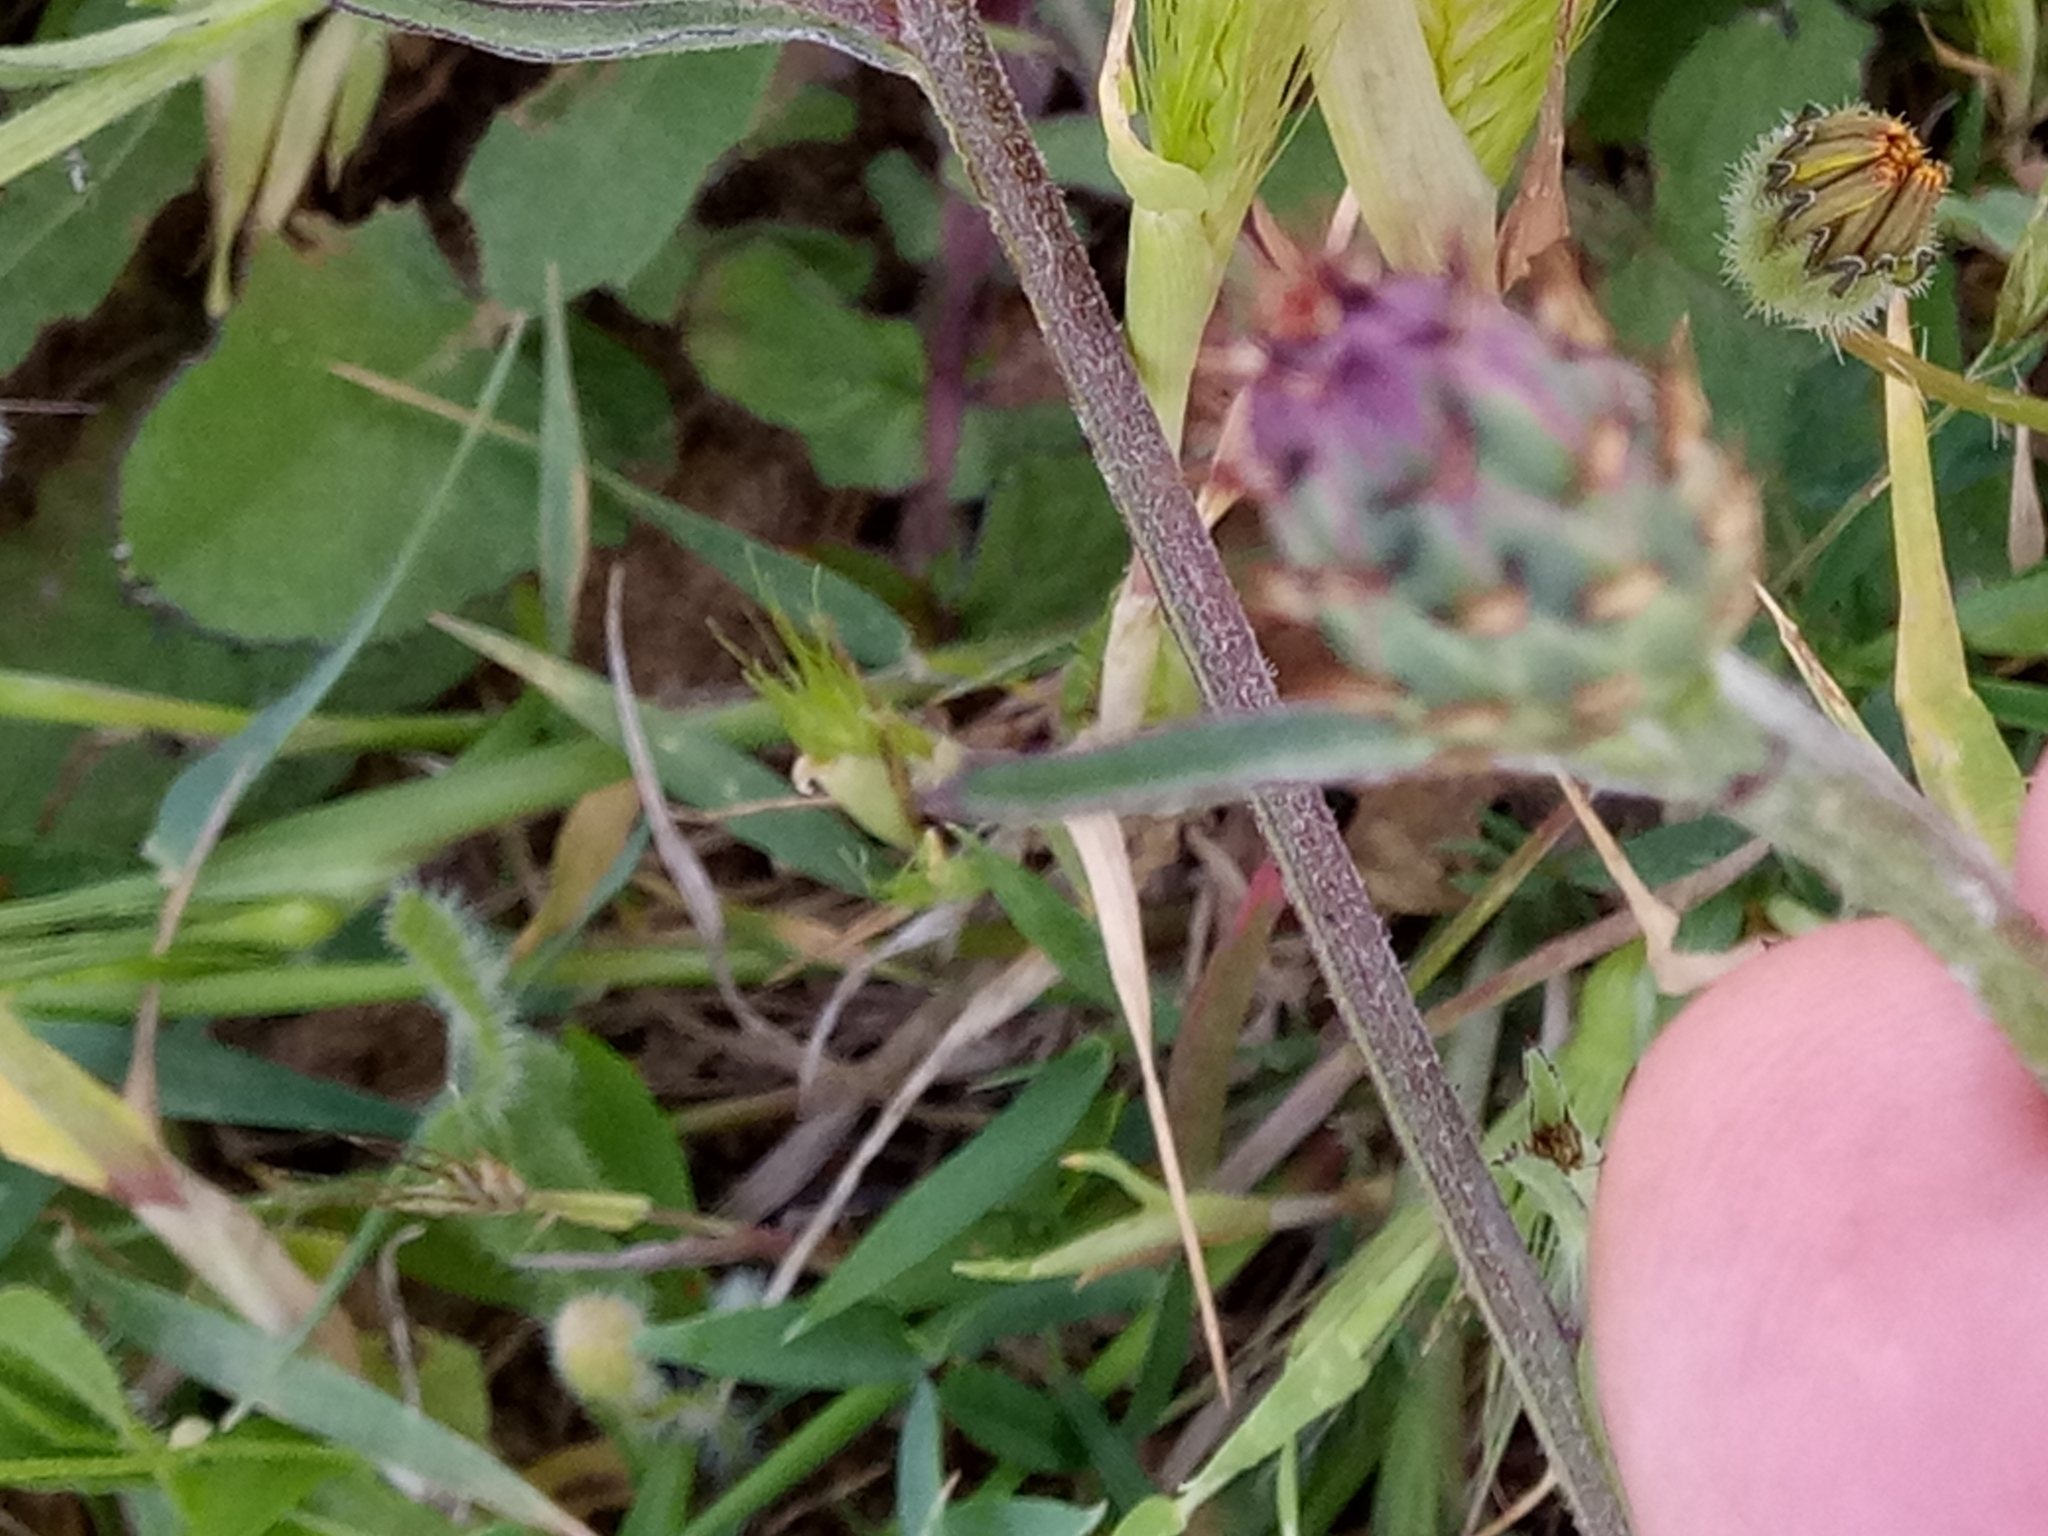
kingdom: Plantae
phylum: Tracheophyta
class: Magnoliopsida
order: Asterales
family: Asteraceae
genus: Centaurea
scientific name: Centaurea napifolia
